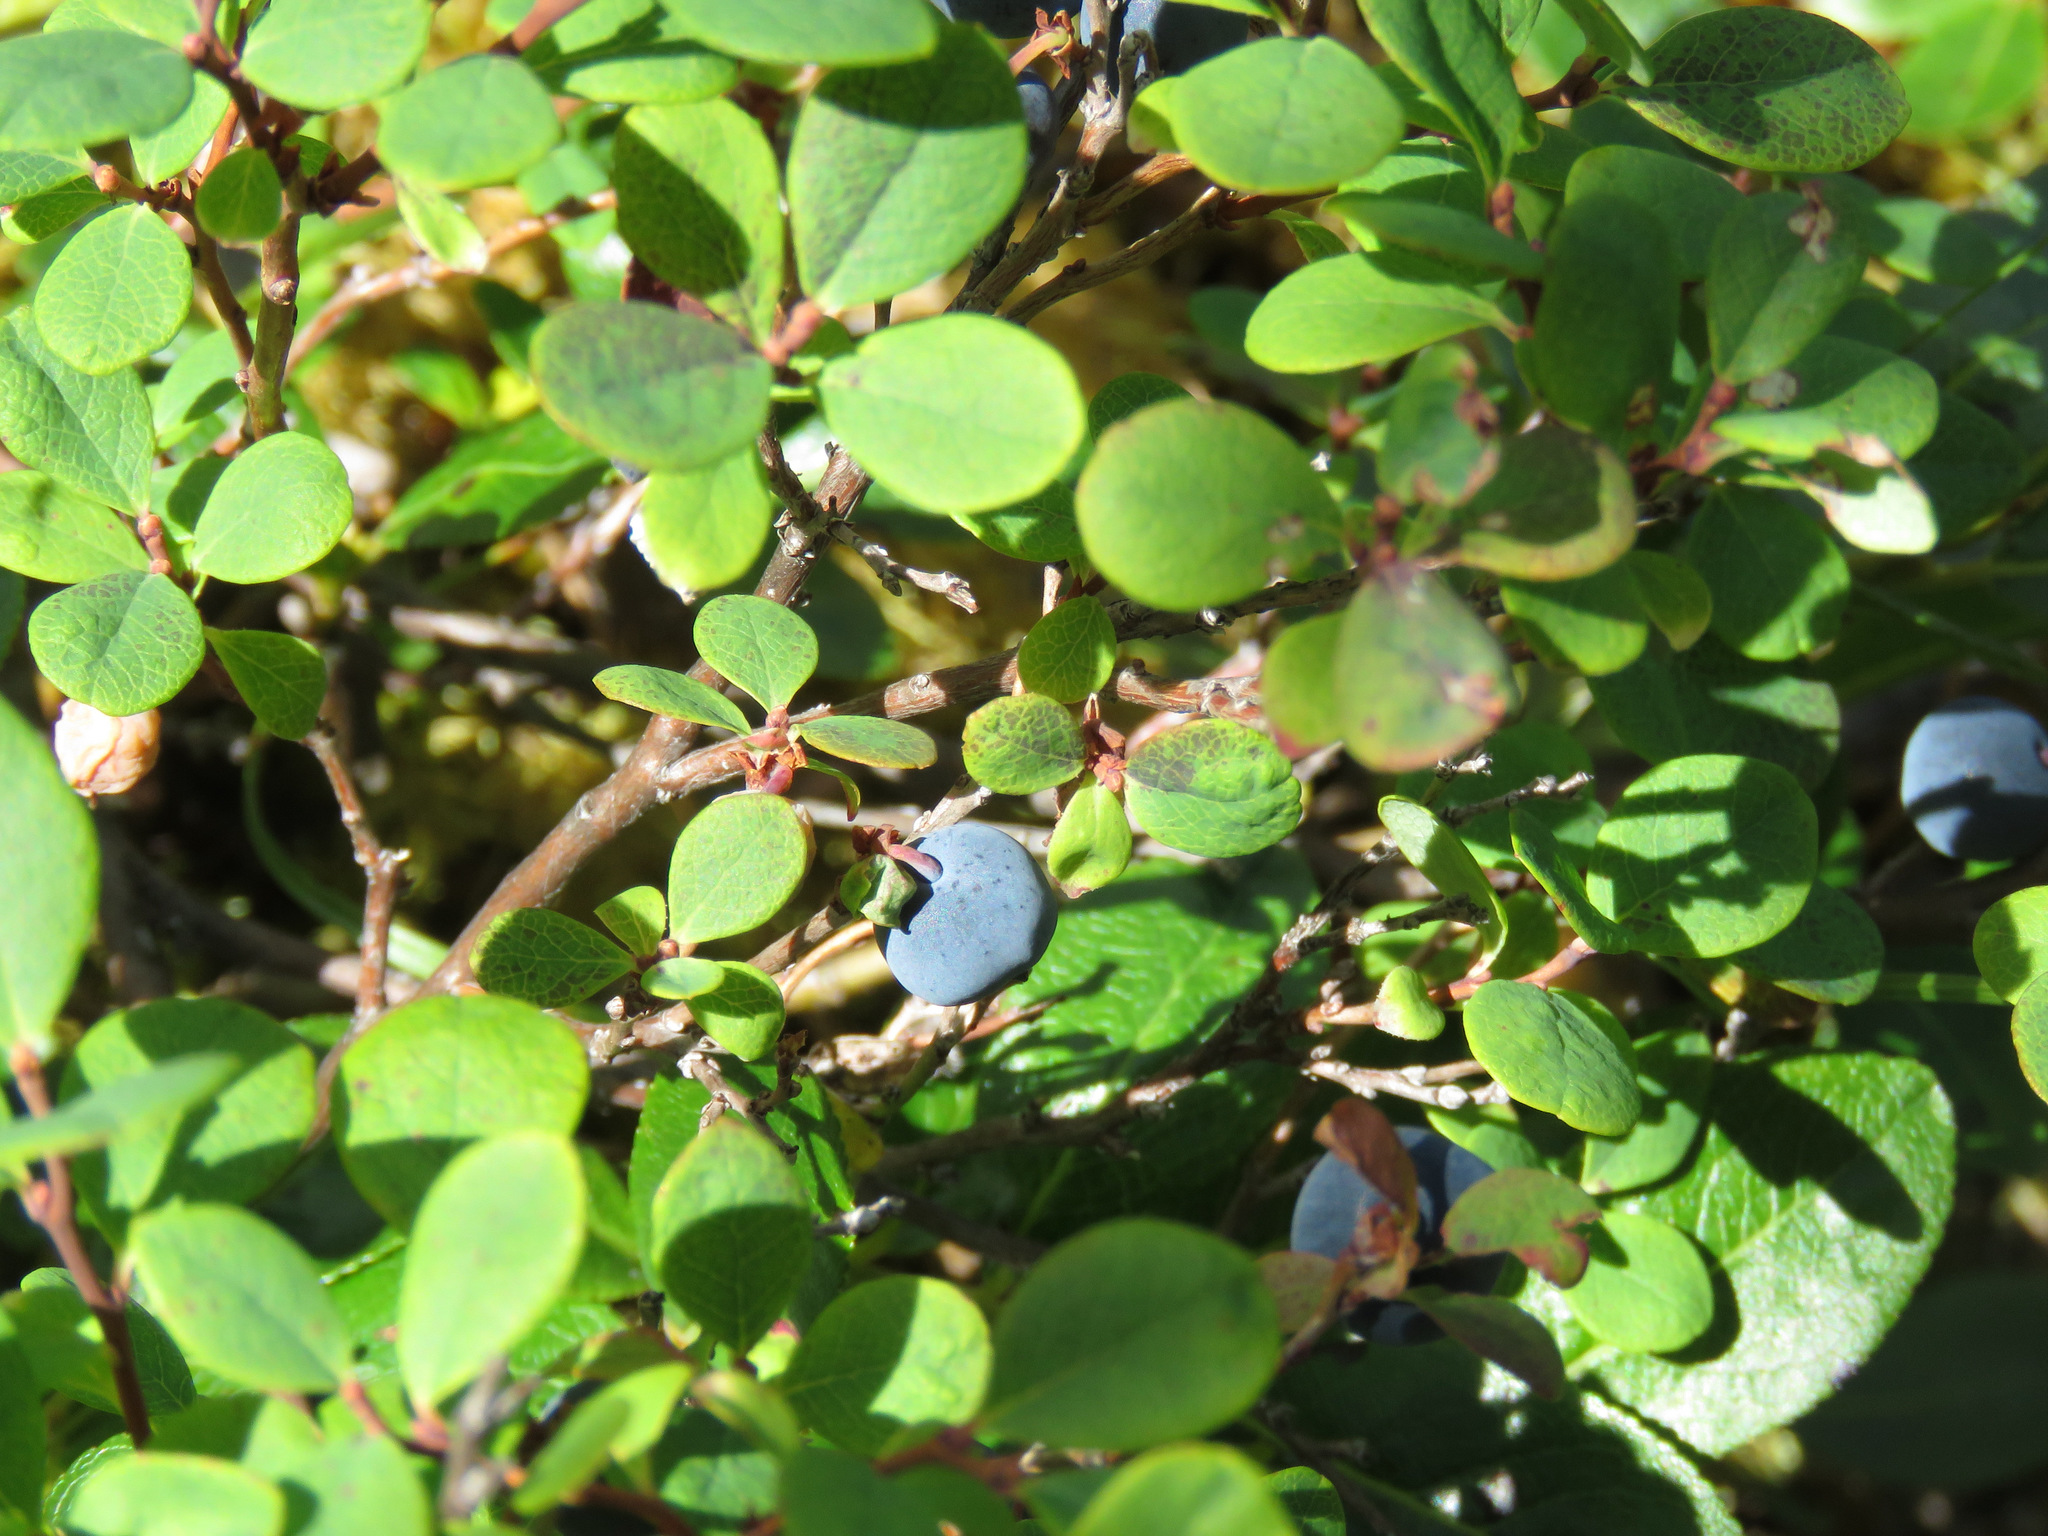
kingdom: Plantae
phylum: Tracheophyta
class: Magnoliopsida
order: Ericales
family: Ericaceae
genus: Vaccinium
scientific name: Vaccinium uliginosum
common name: Bog bilberry
